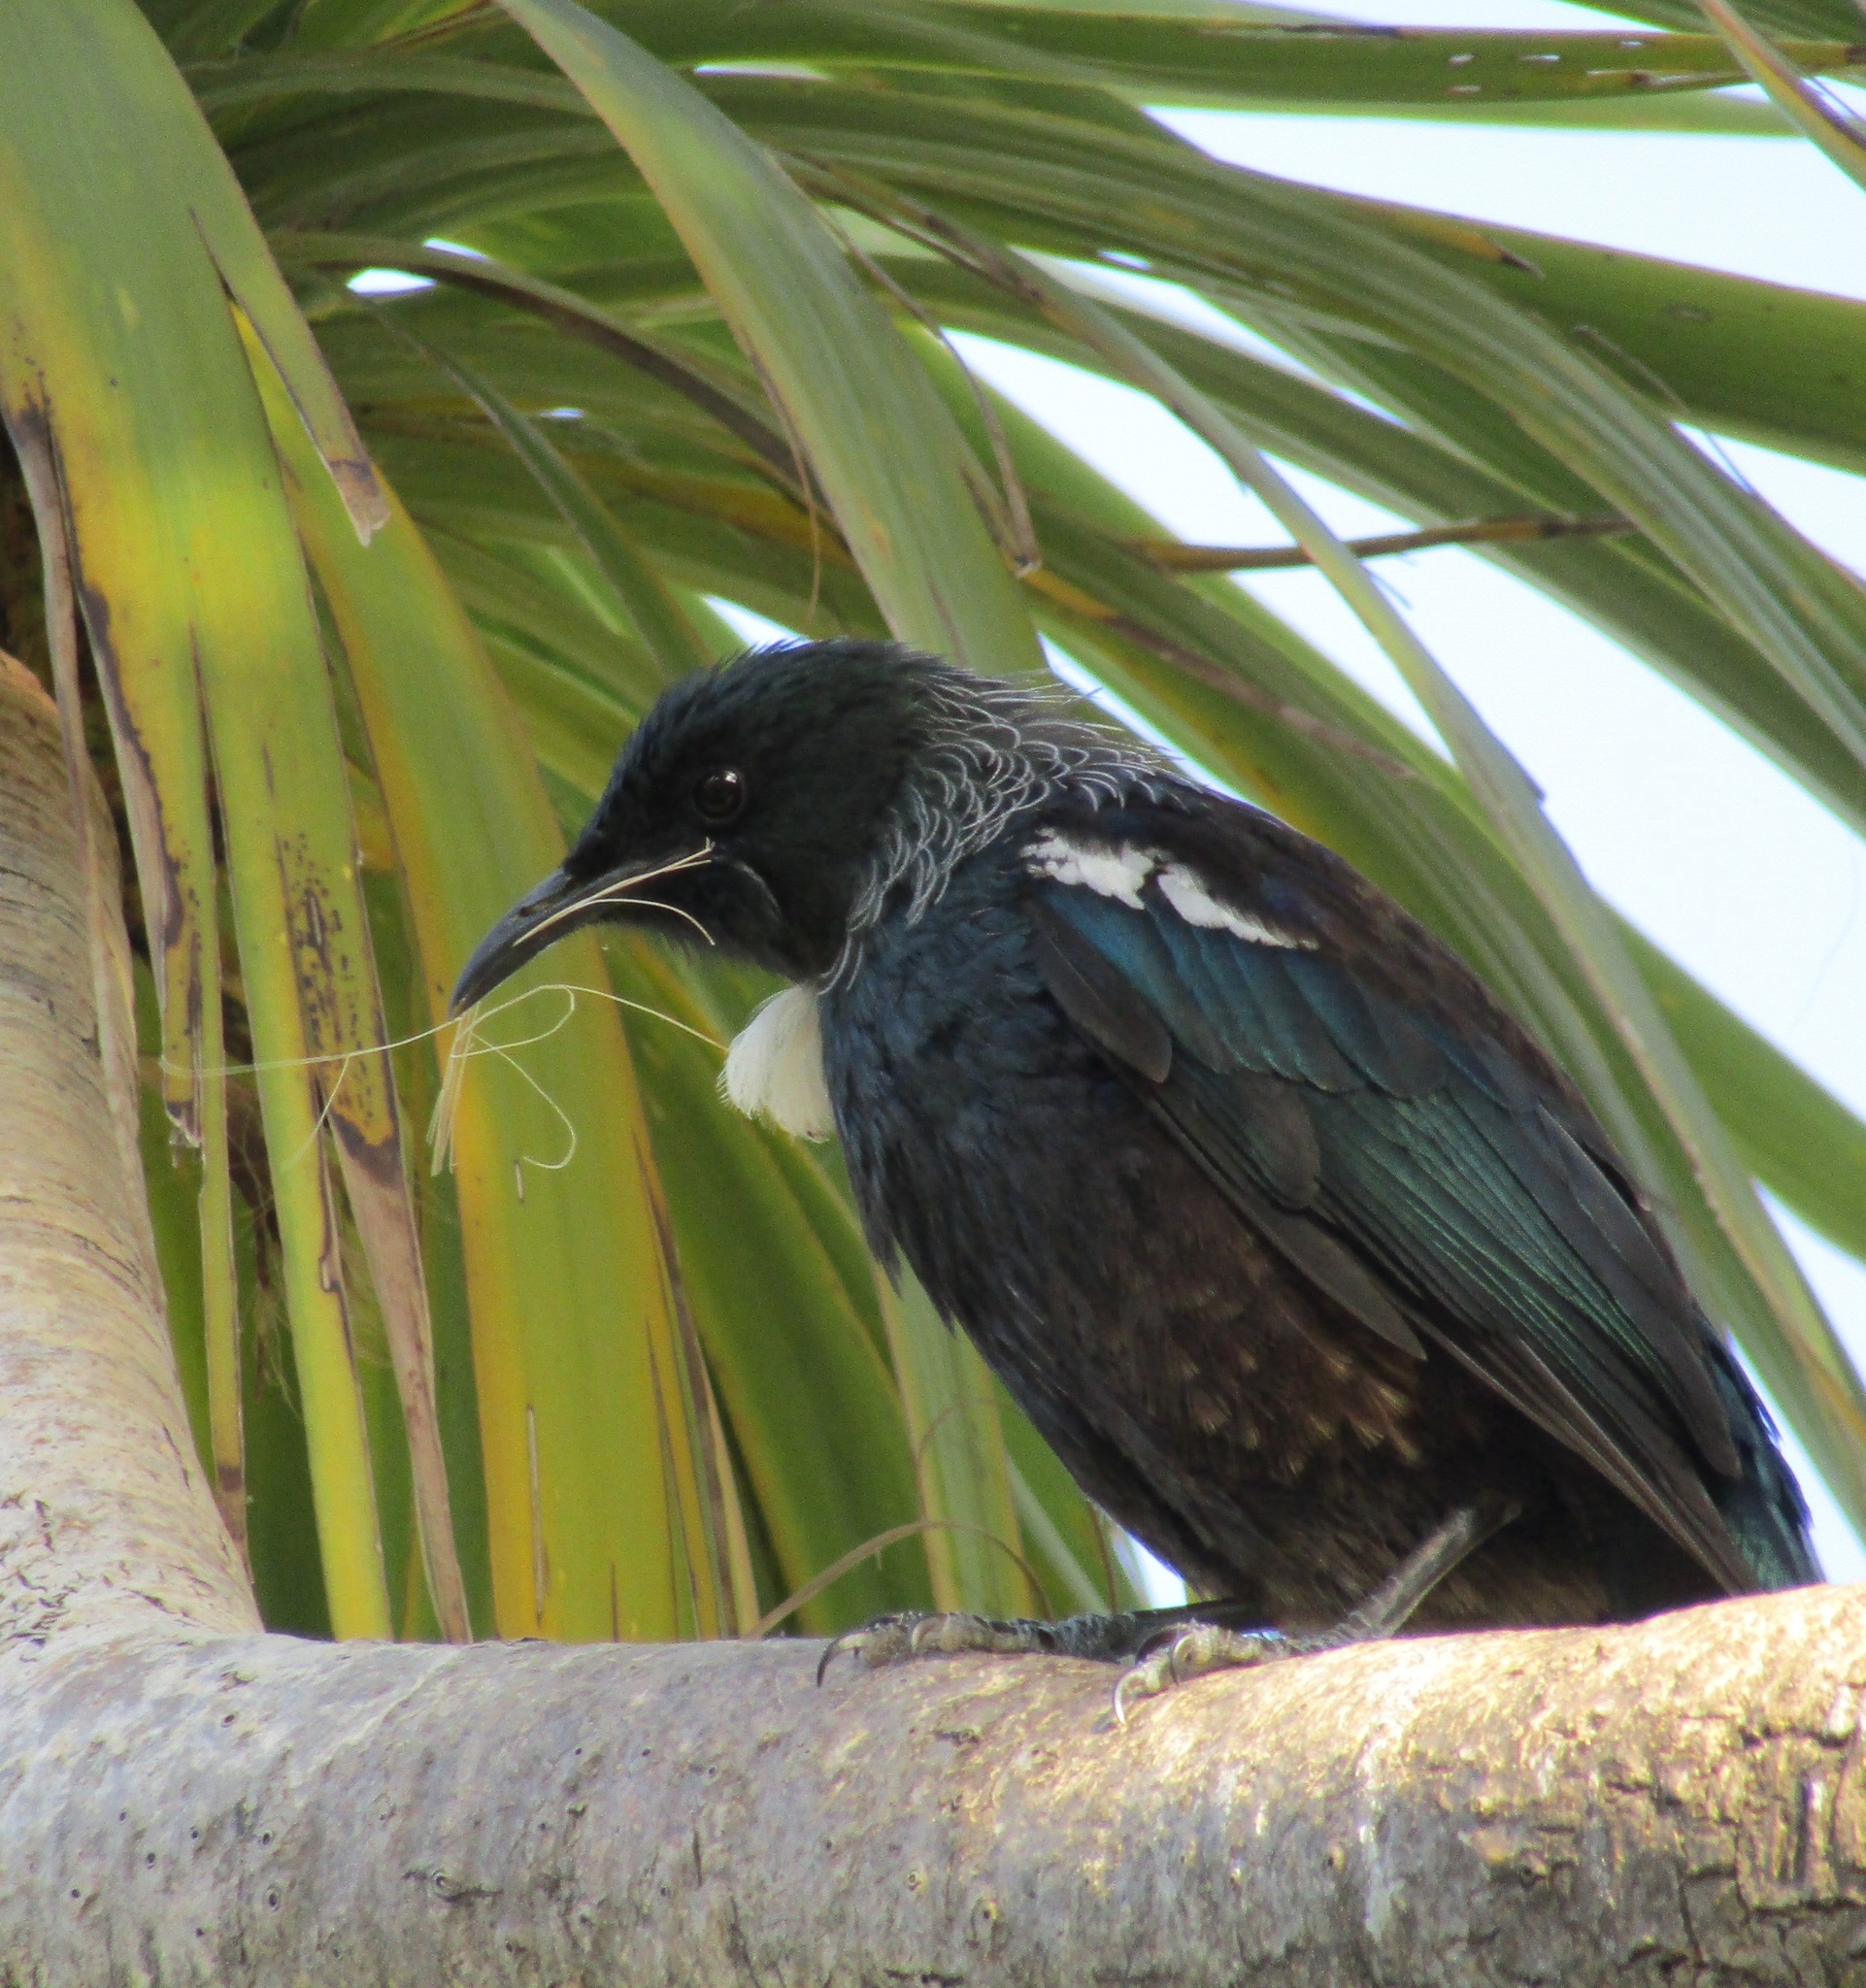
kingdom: Animalia
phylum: Chordata
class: Aves
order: Passeriformes
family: Meliphagidae
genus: Prosthemadera
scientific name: Prosthemadera novaeseelandiae
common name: Tui
